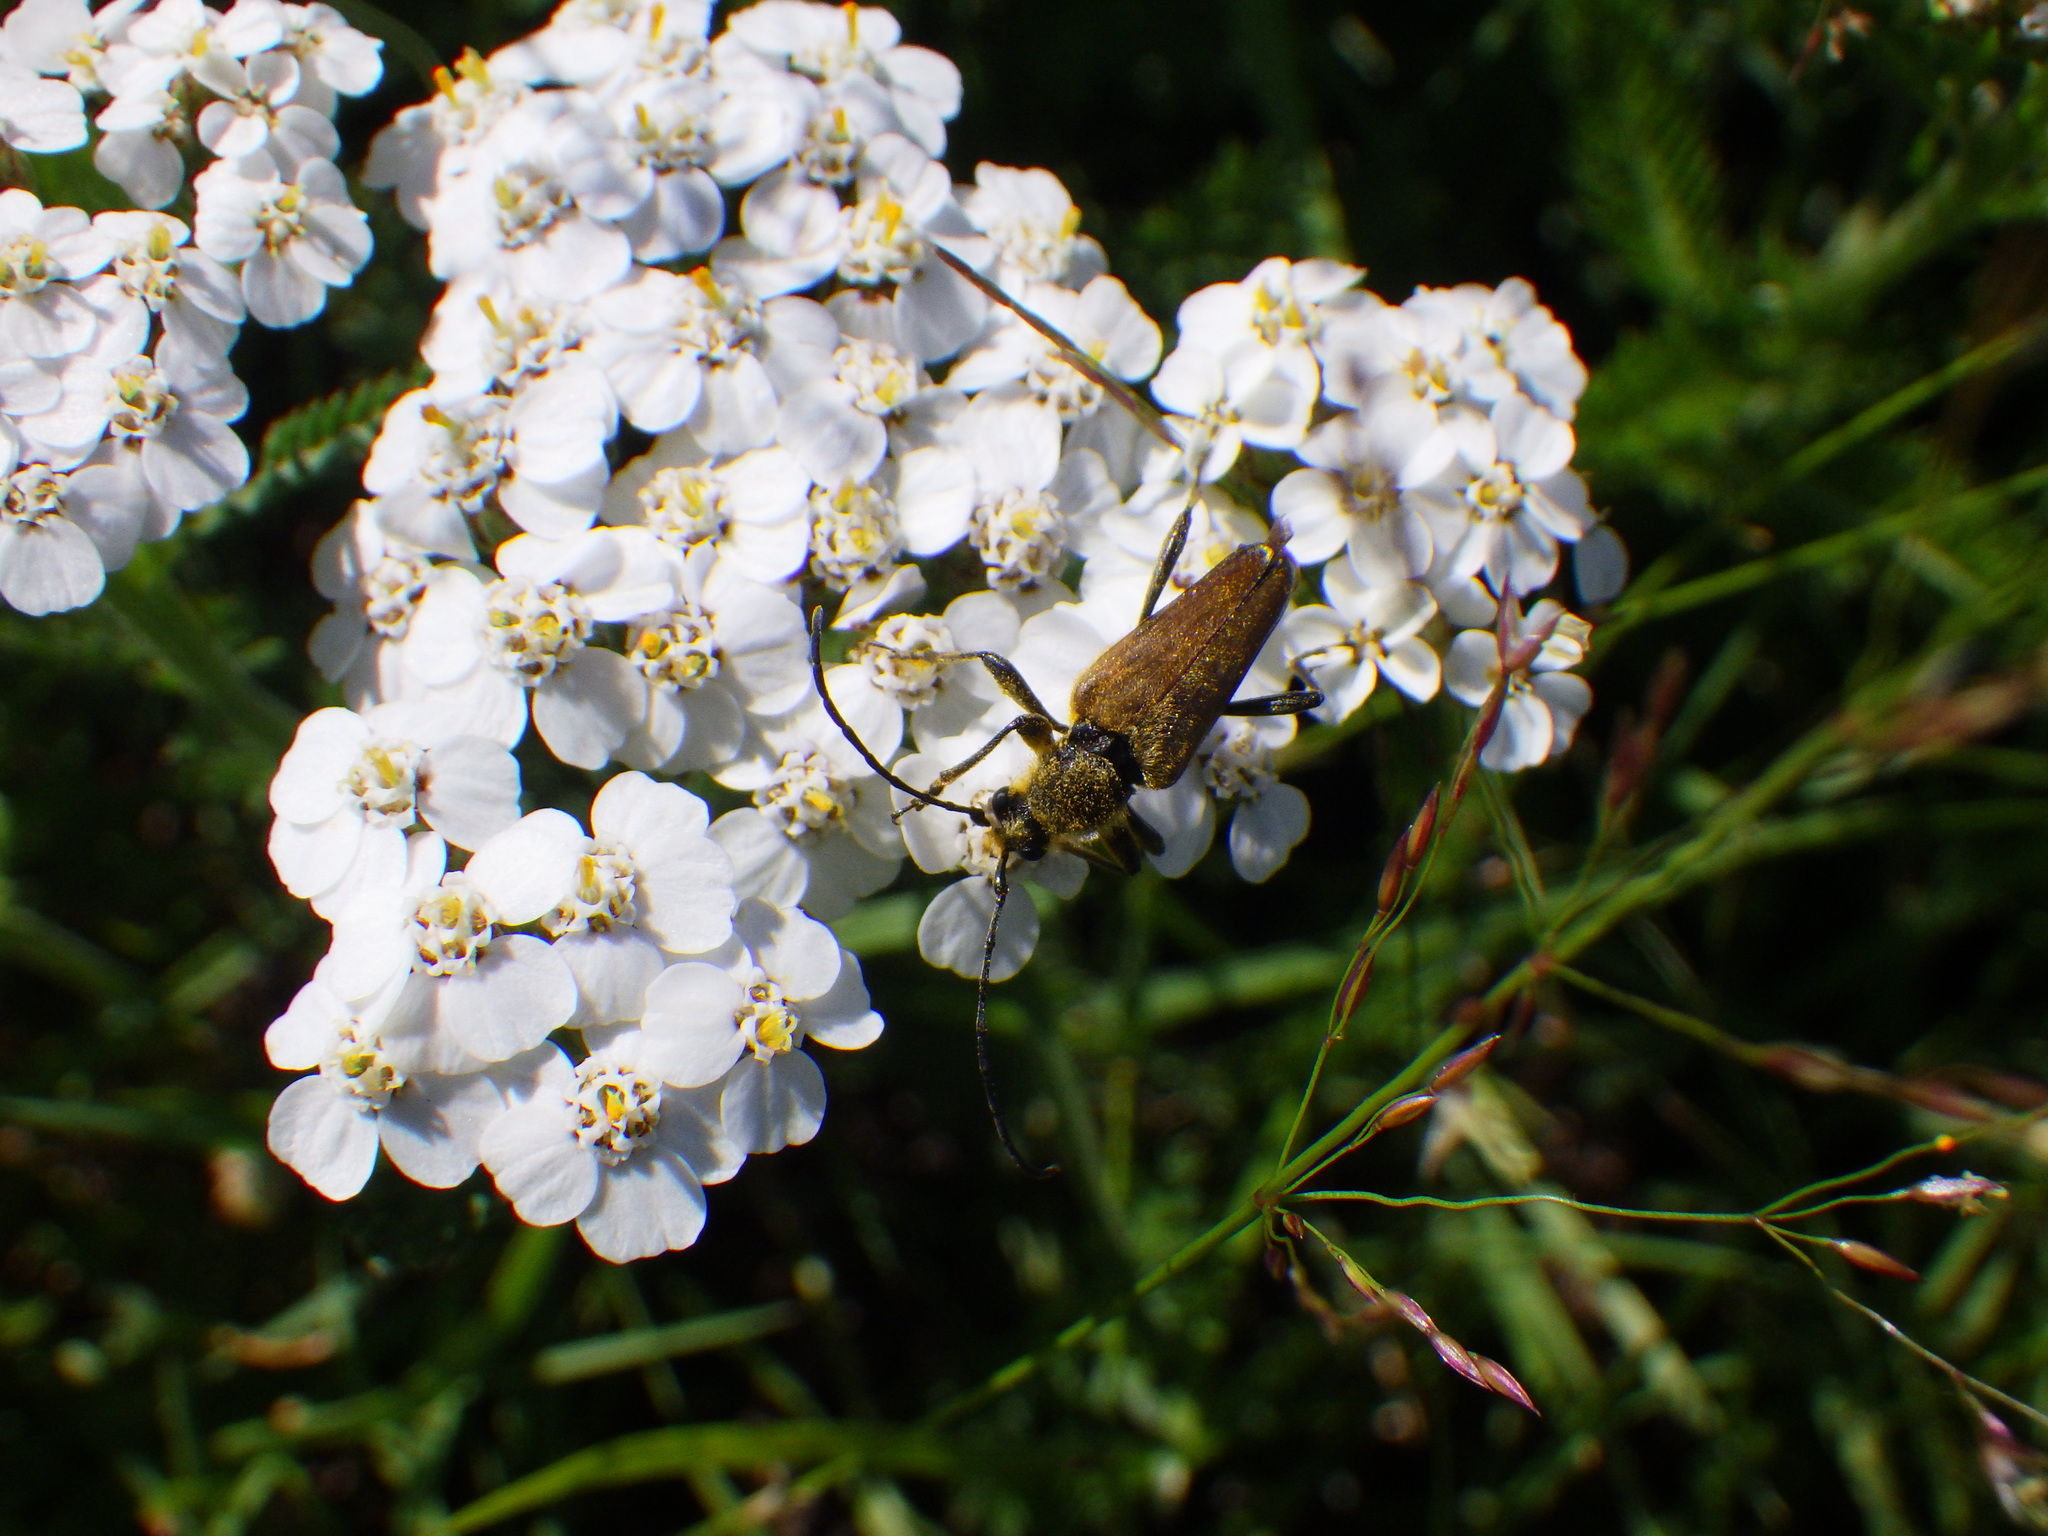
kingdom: Animalia
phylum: Arthropoda
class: Insecta
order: Coleoptera
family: Cerambycidae
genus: Cosmosalia
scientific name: Cosmosalia chrysocoma
